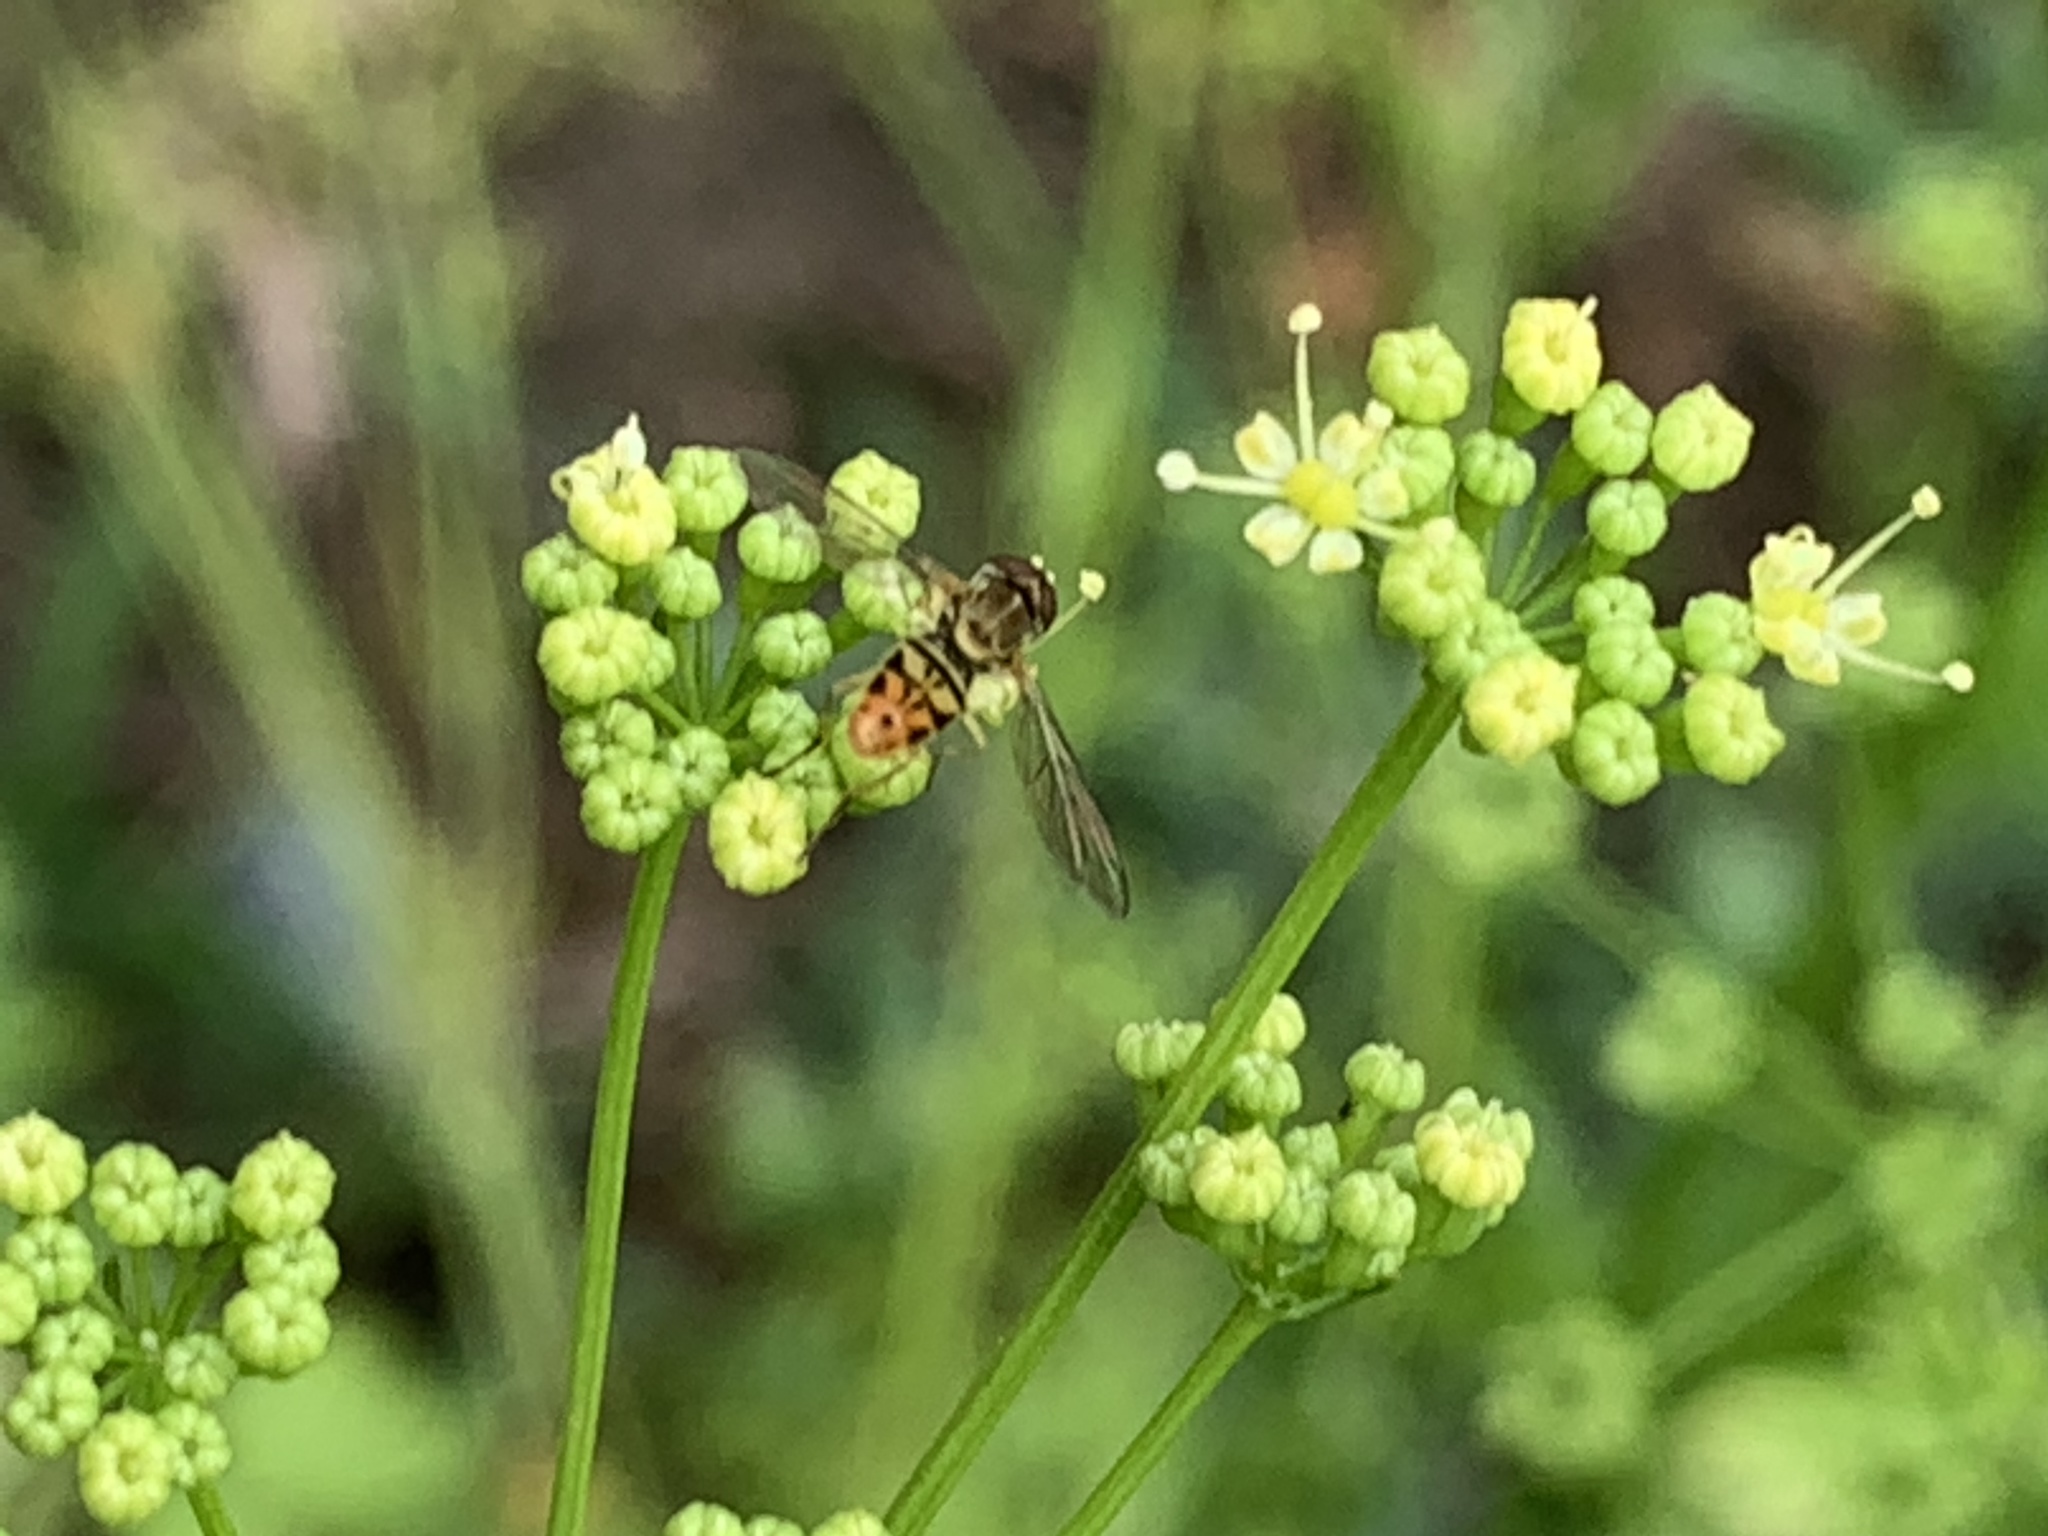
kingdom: Animalia
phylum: Arthropoda
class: Insecta
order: Diptera
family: Syrphidae
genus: Toxomerus
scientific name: Toxomerus marginatus
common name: Syrphid fly
